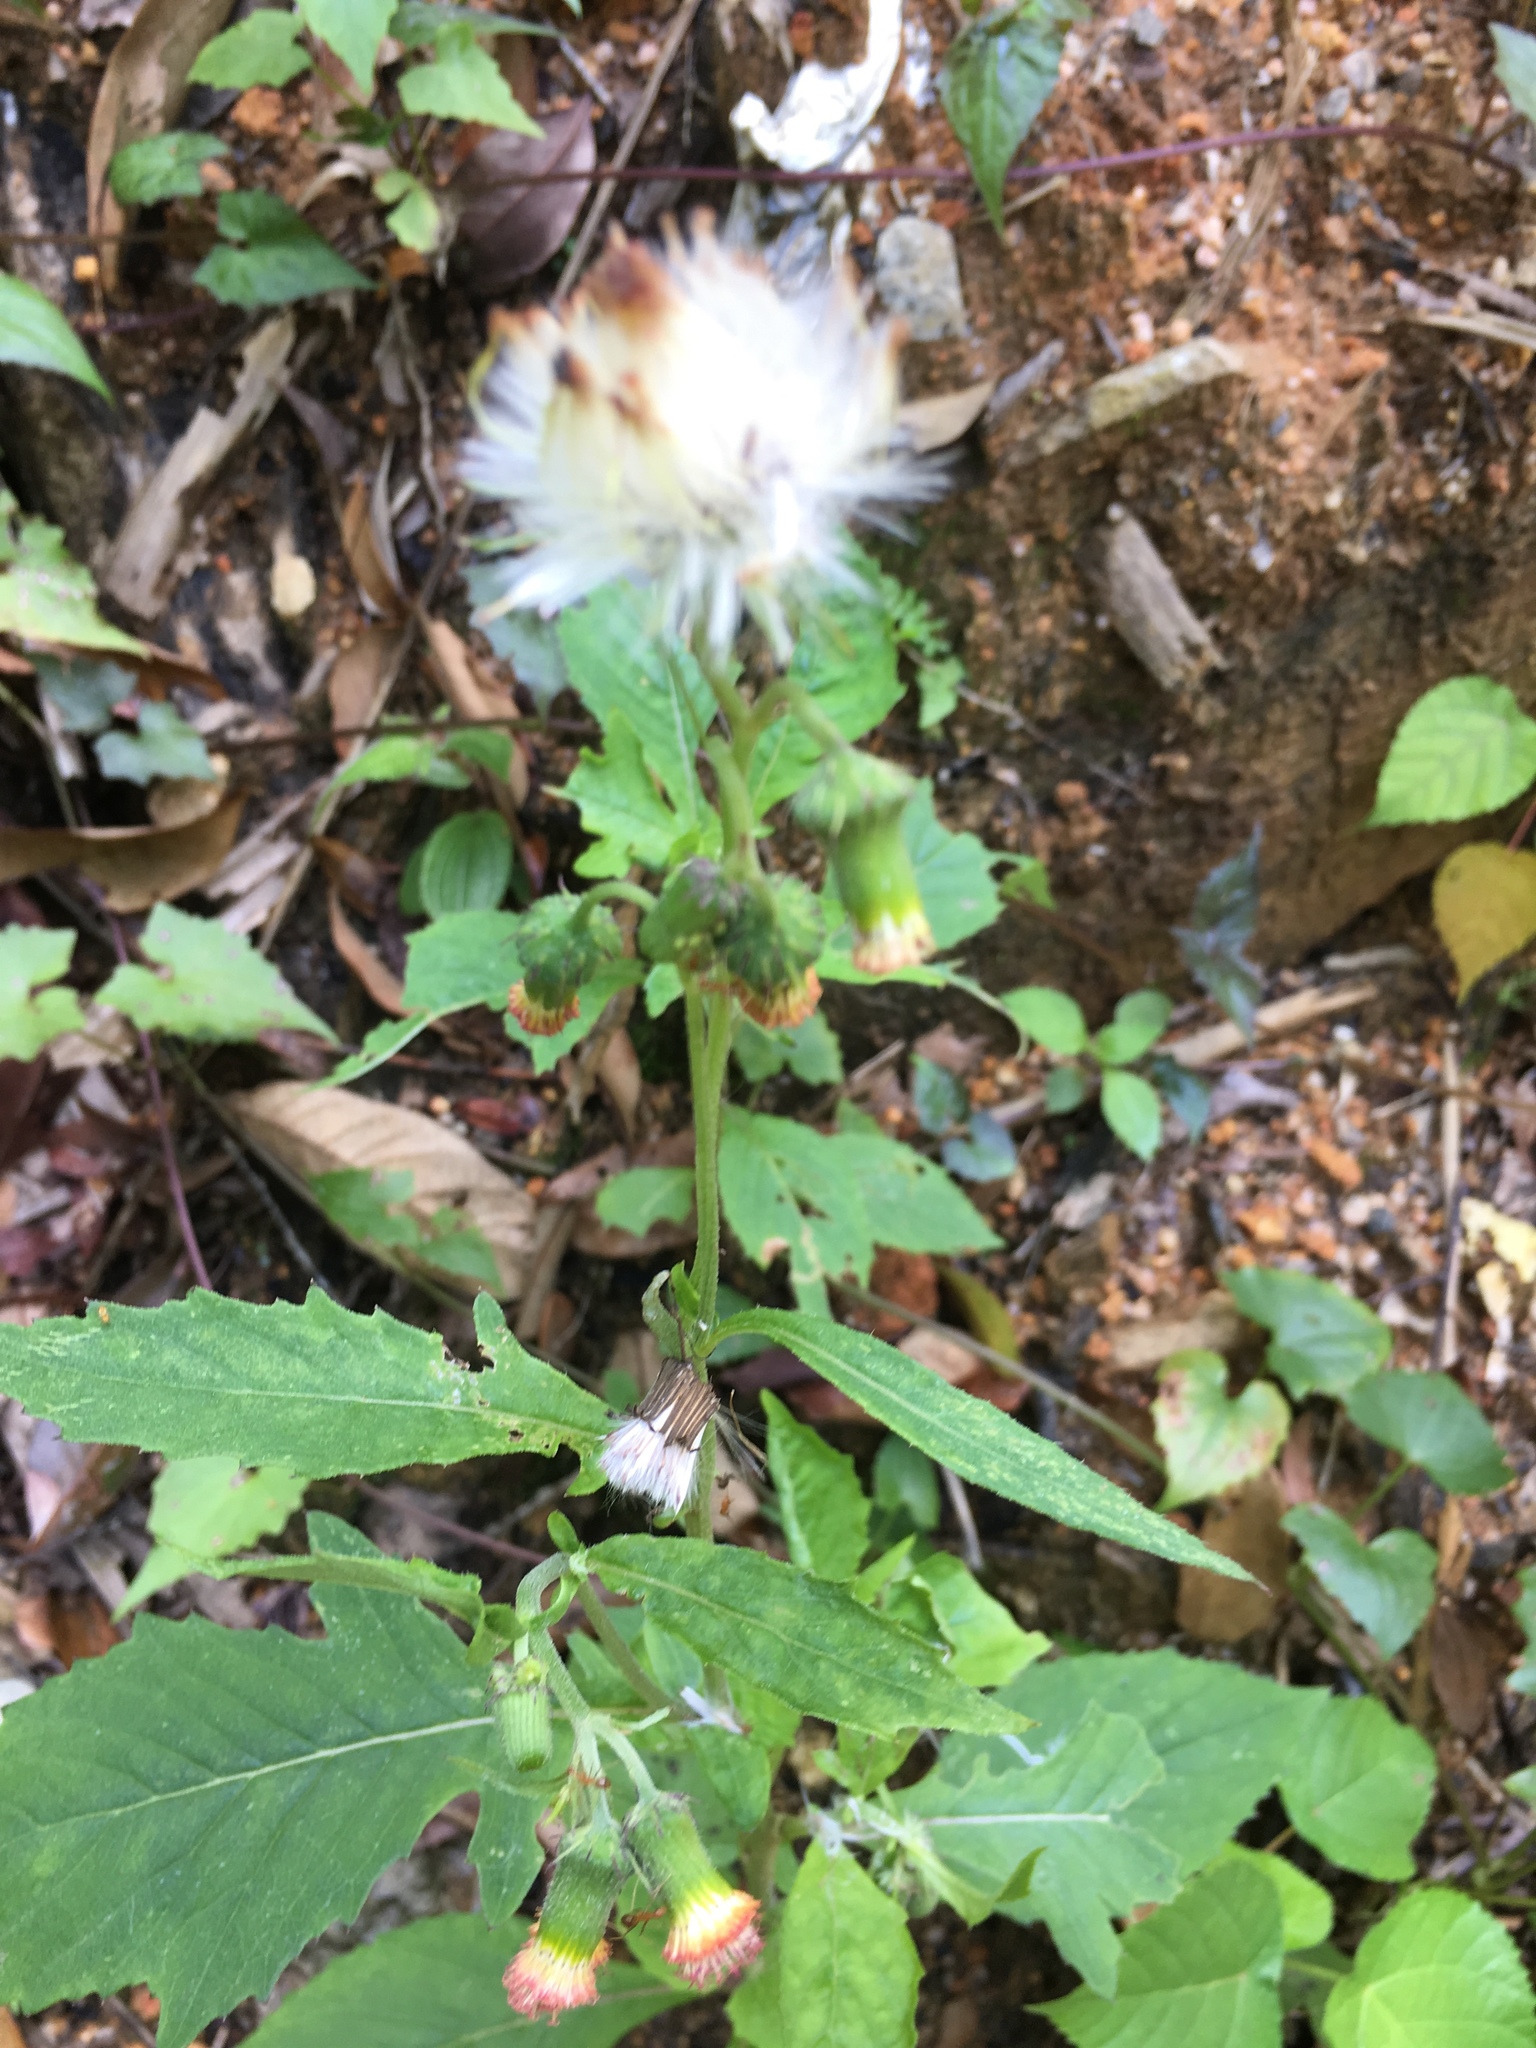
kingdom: Plantae
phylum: Tracheophyta
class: Magnoliopsida
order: Asterales
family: Asteraceae
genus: Crassocephalum
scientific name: Crassocephalum crepidioides
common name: Redflower ragleaf
